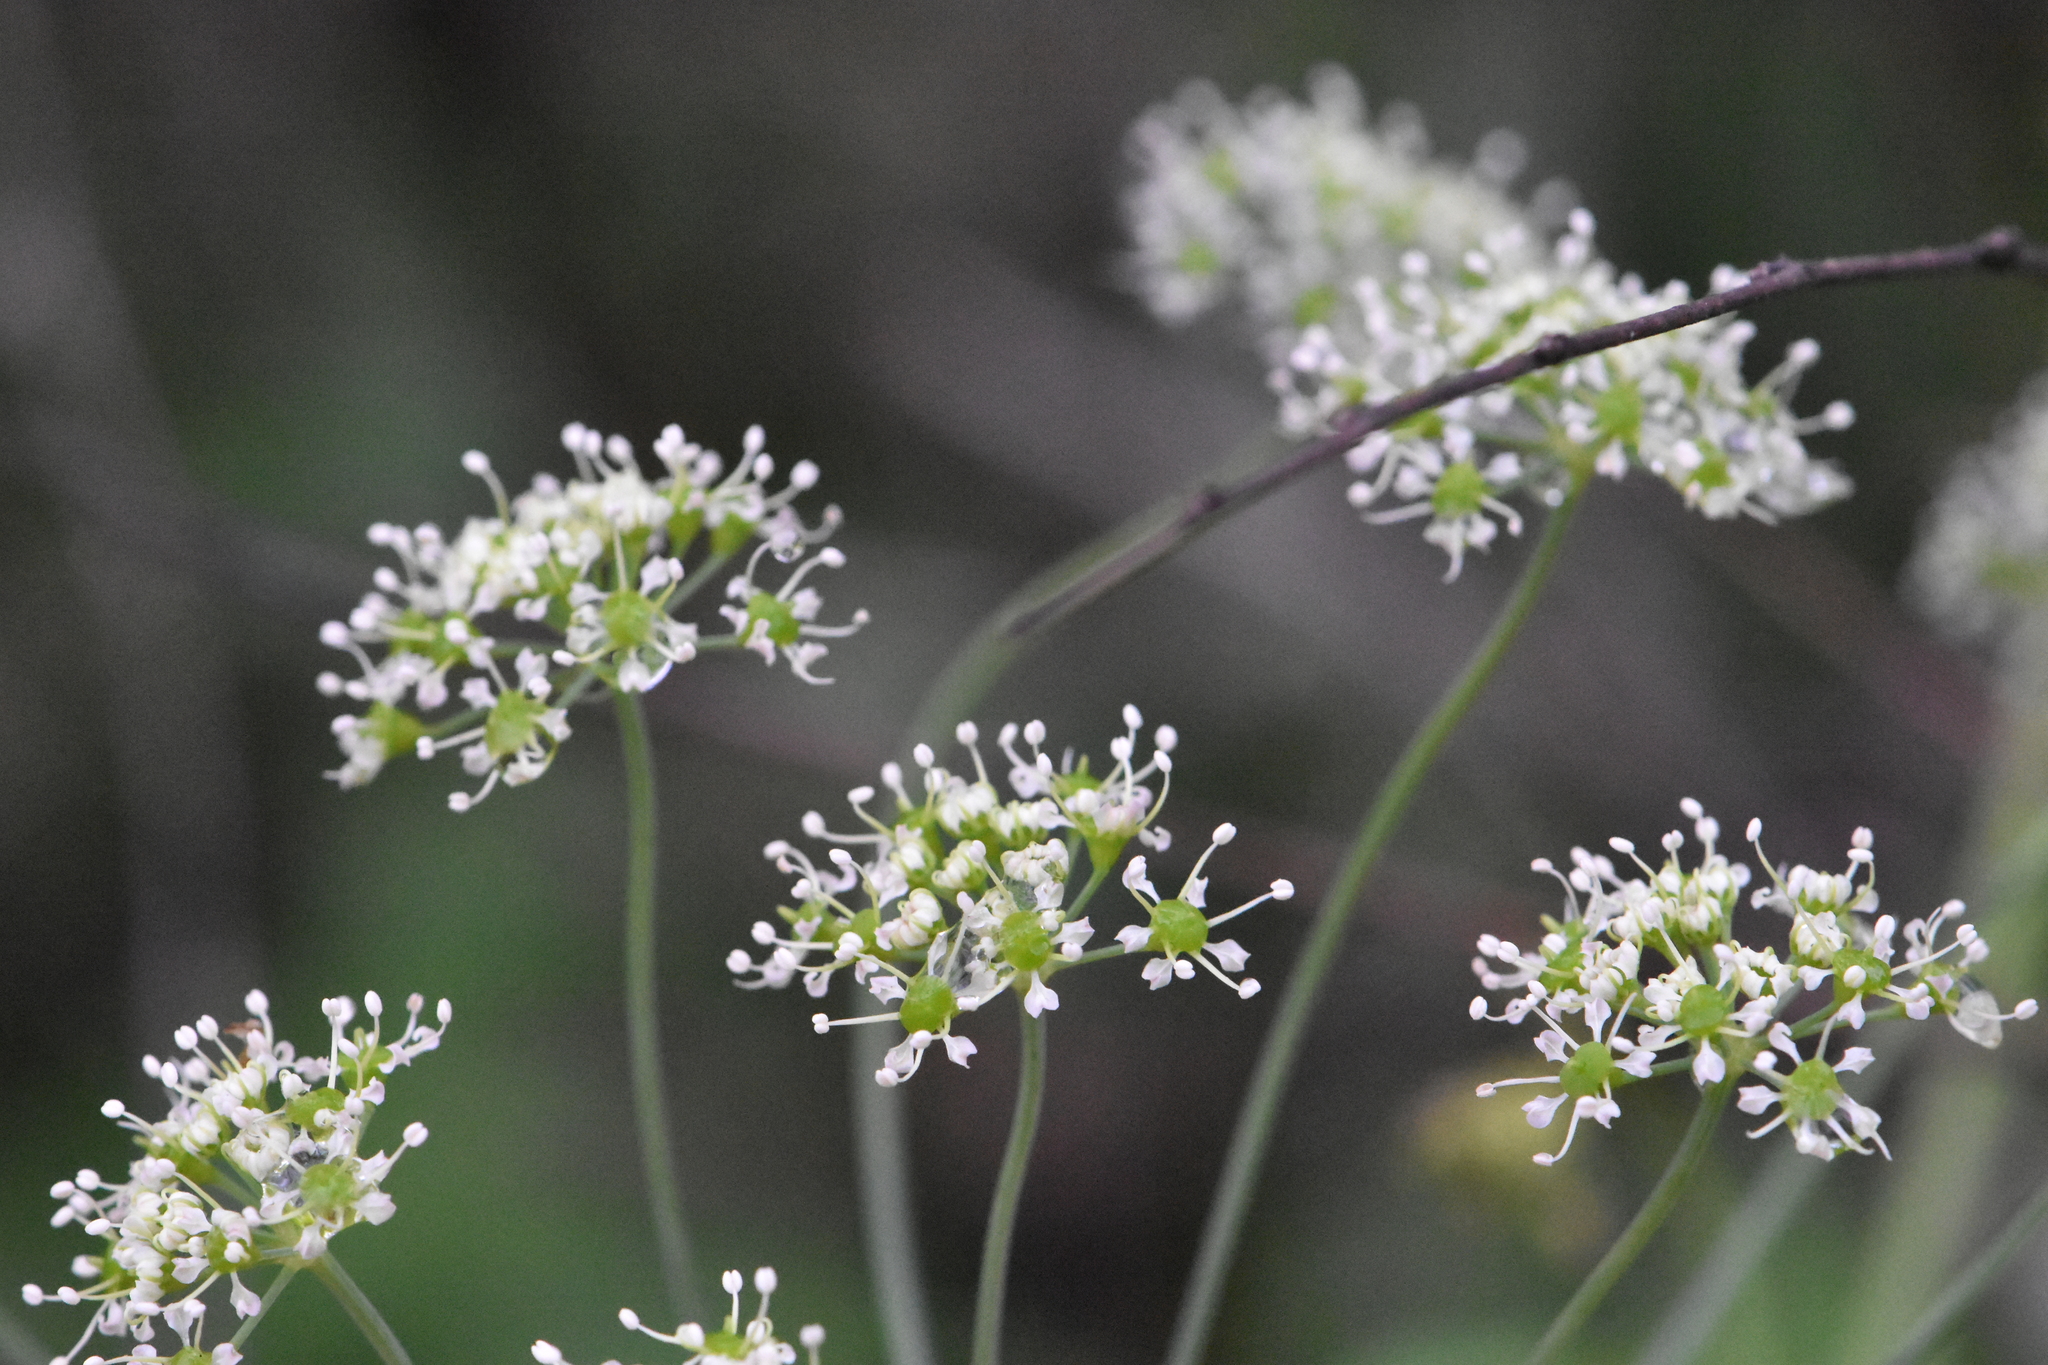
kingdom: Plantae
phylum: Tracheophyta
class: Magnoliopsida
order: Apiales
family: Apiaceae
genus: Laser
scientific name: Laser trilobum
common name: Laser
